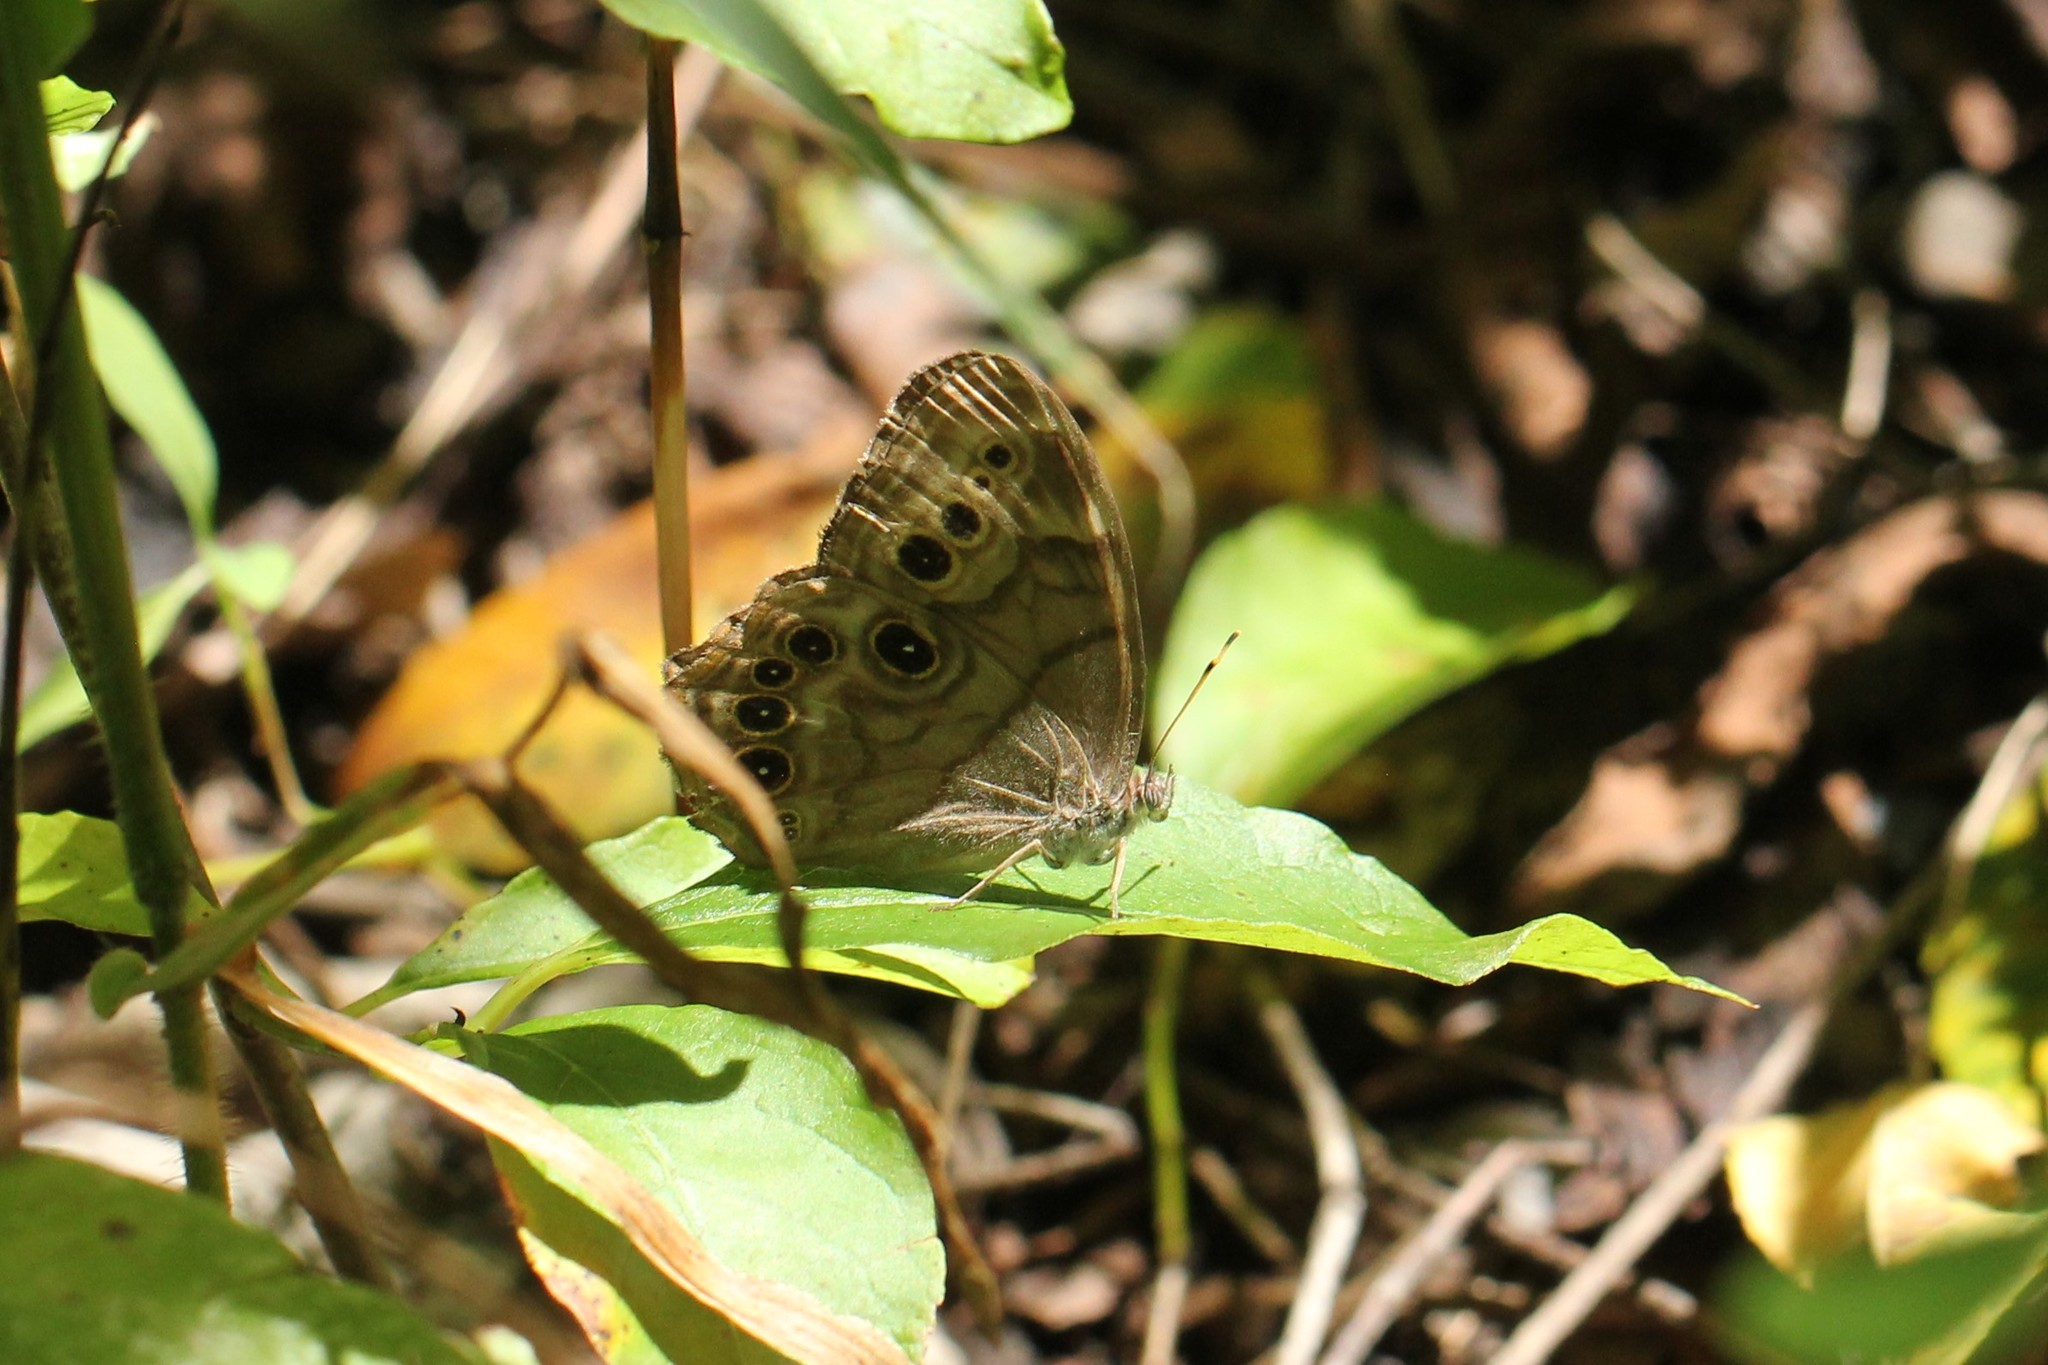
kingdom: Animalia
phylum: Arthropoda
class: Insecta
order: Lepidoptera
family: Nymphalidae
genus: Lethe
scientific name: Lethe anthedon
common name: Northern pearly-eye
